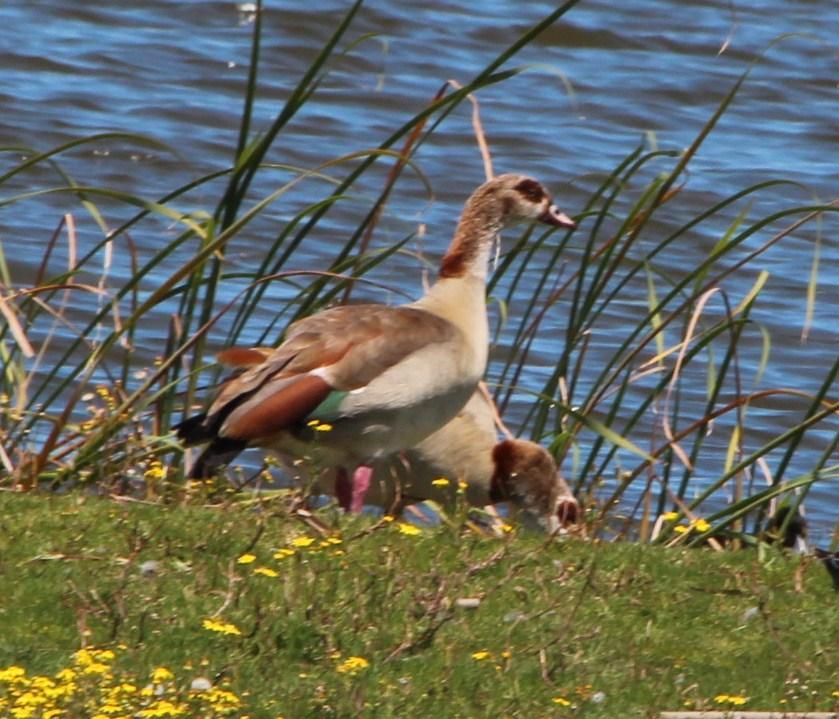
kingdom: Animalia
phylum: Chordata
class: Aves
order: Anseriformes
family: Anatidae
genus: Alopochen
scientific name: Alopochen aegyptiaca
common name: Egyptian goose
